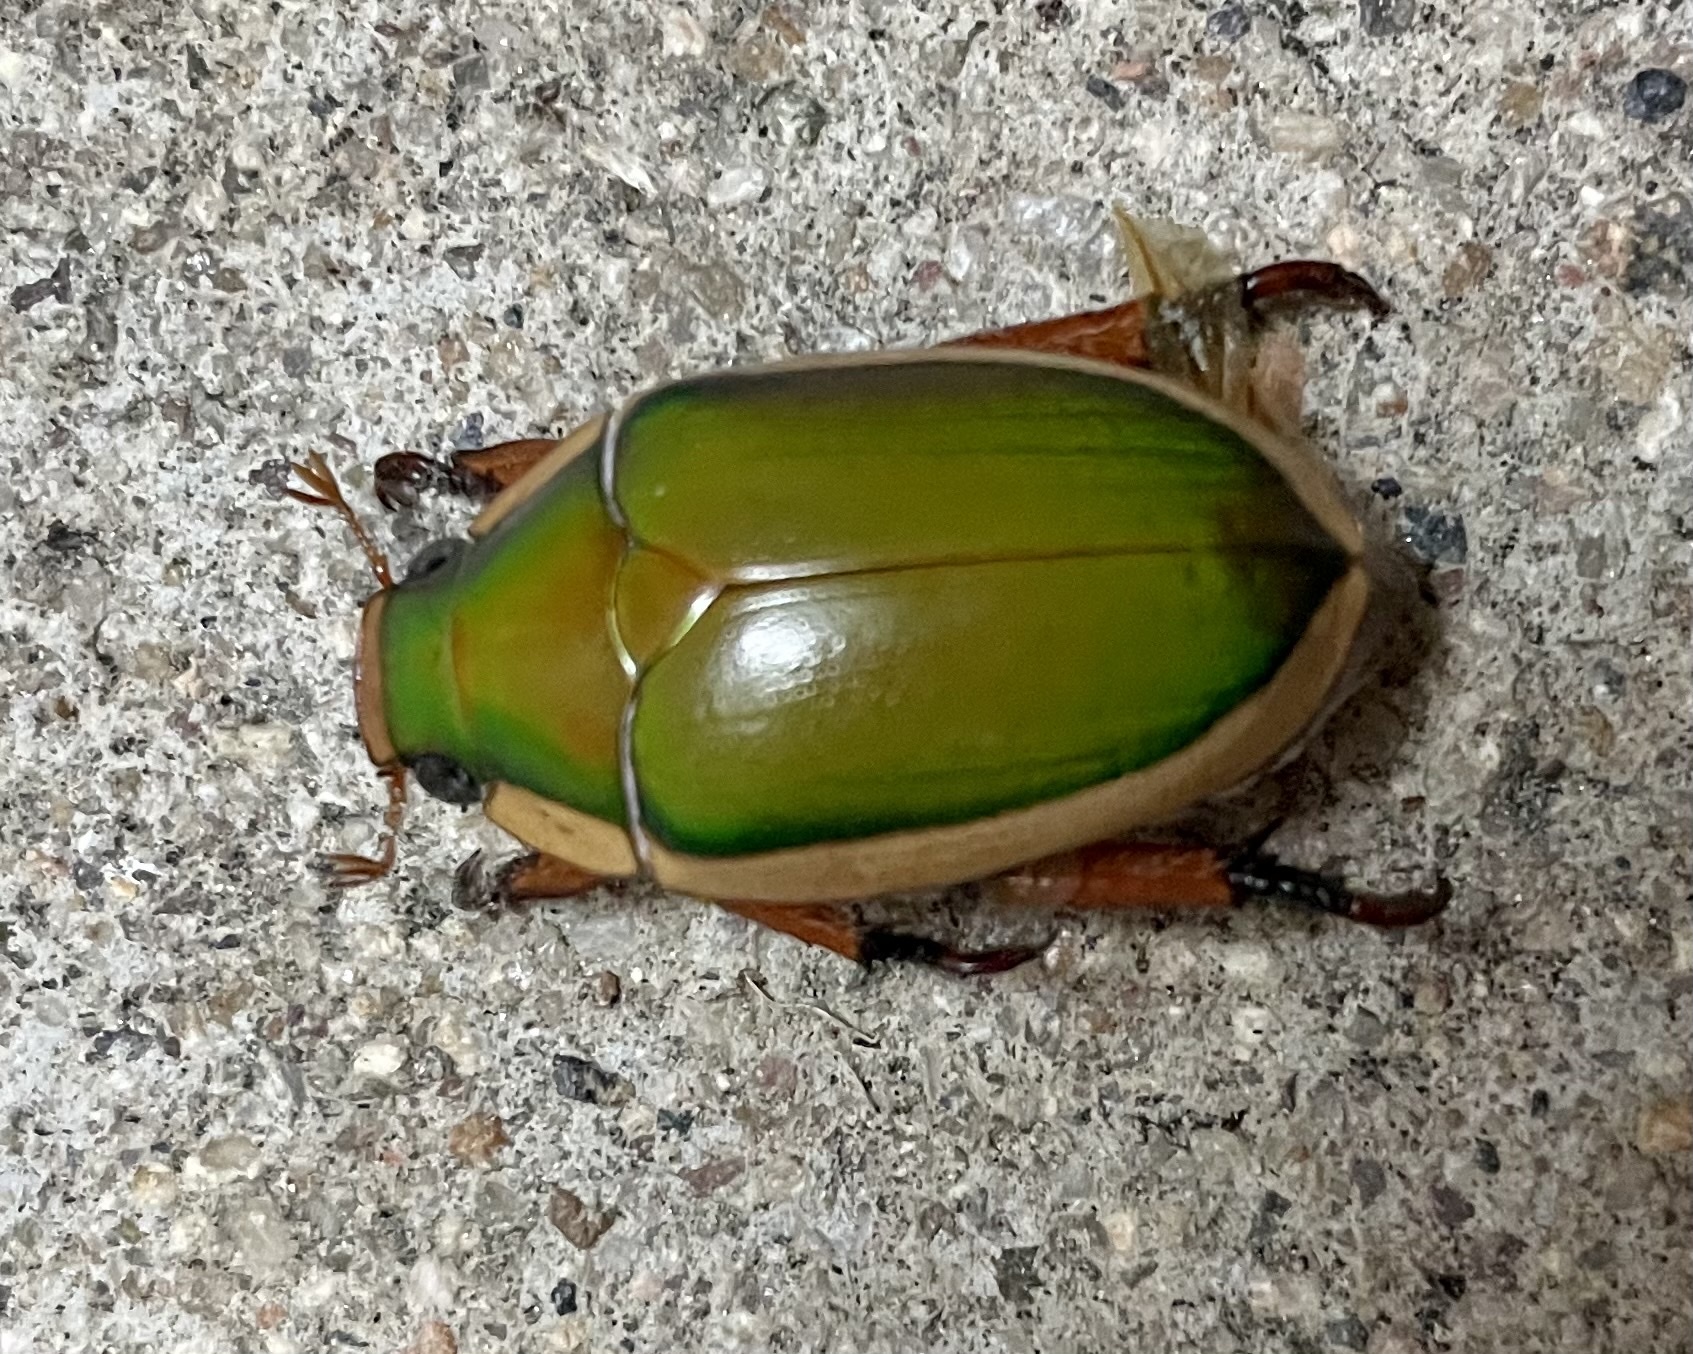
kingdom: Animalia
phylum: Arthropoda
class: Insecta
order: Coleoptera
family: Scarabaeidae
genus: Calloodes
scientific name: Calloodes grayianus
